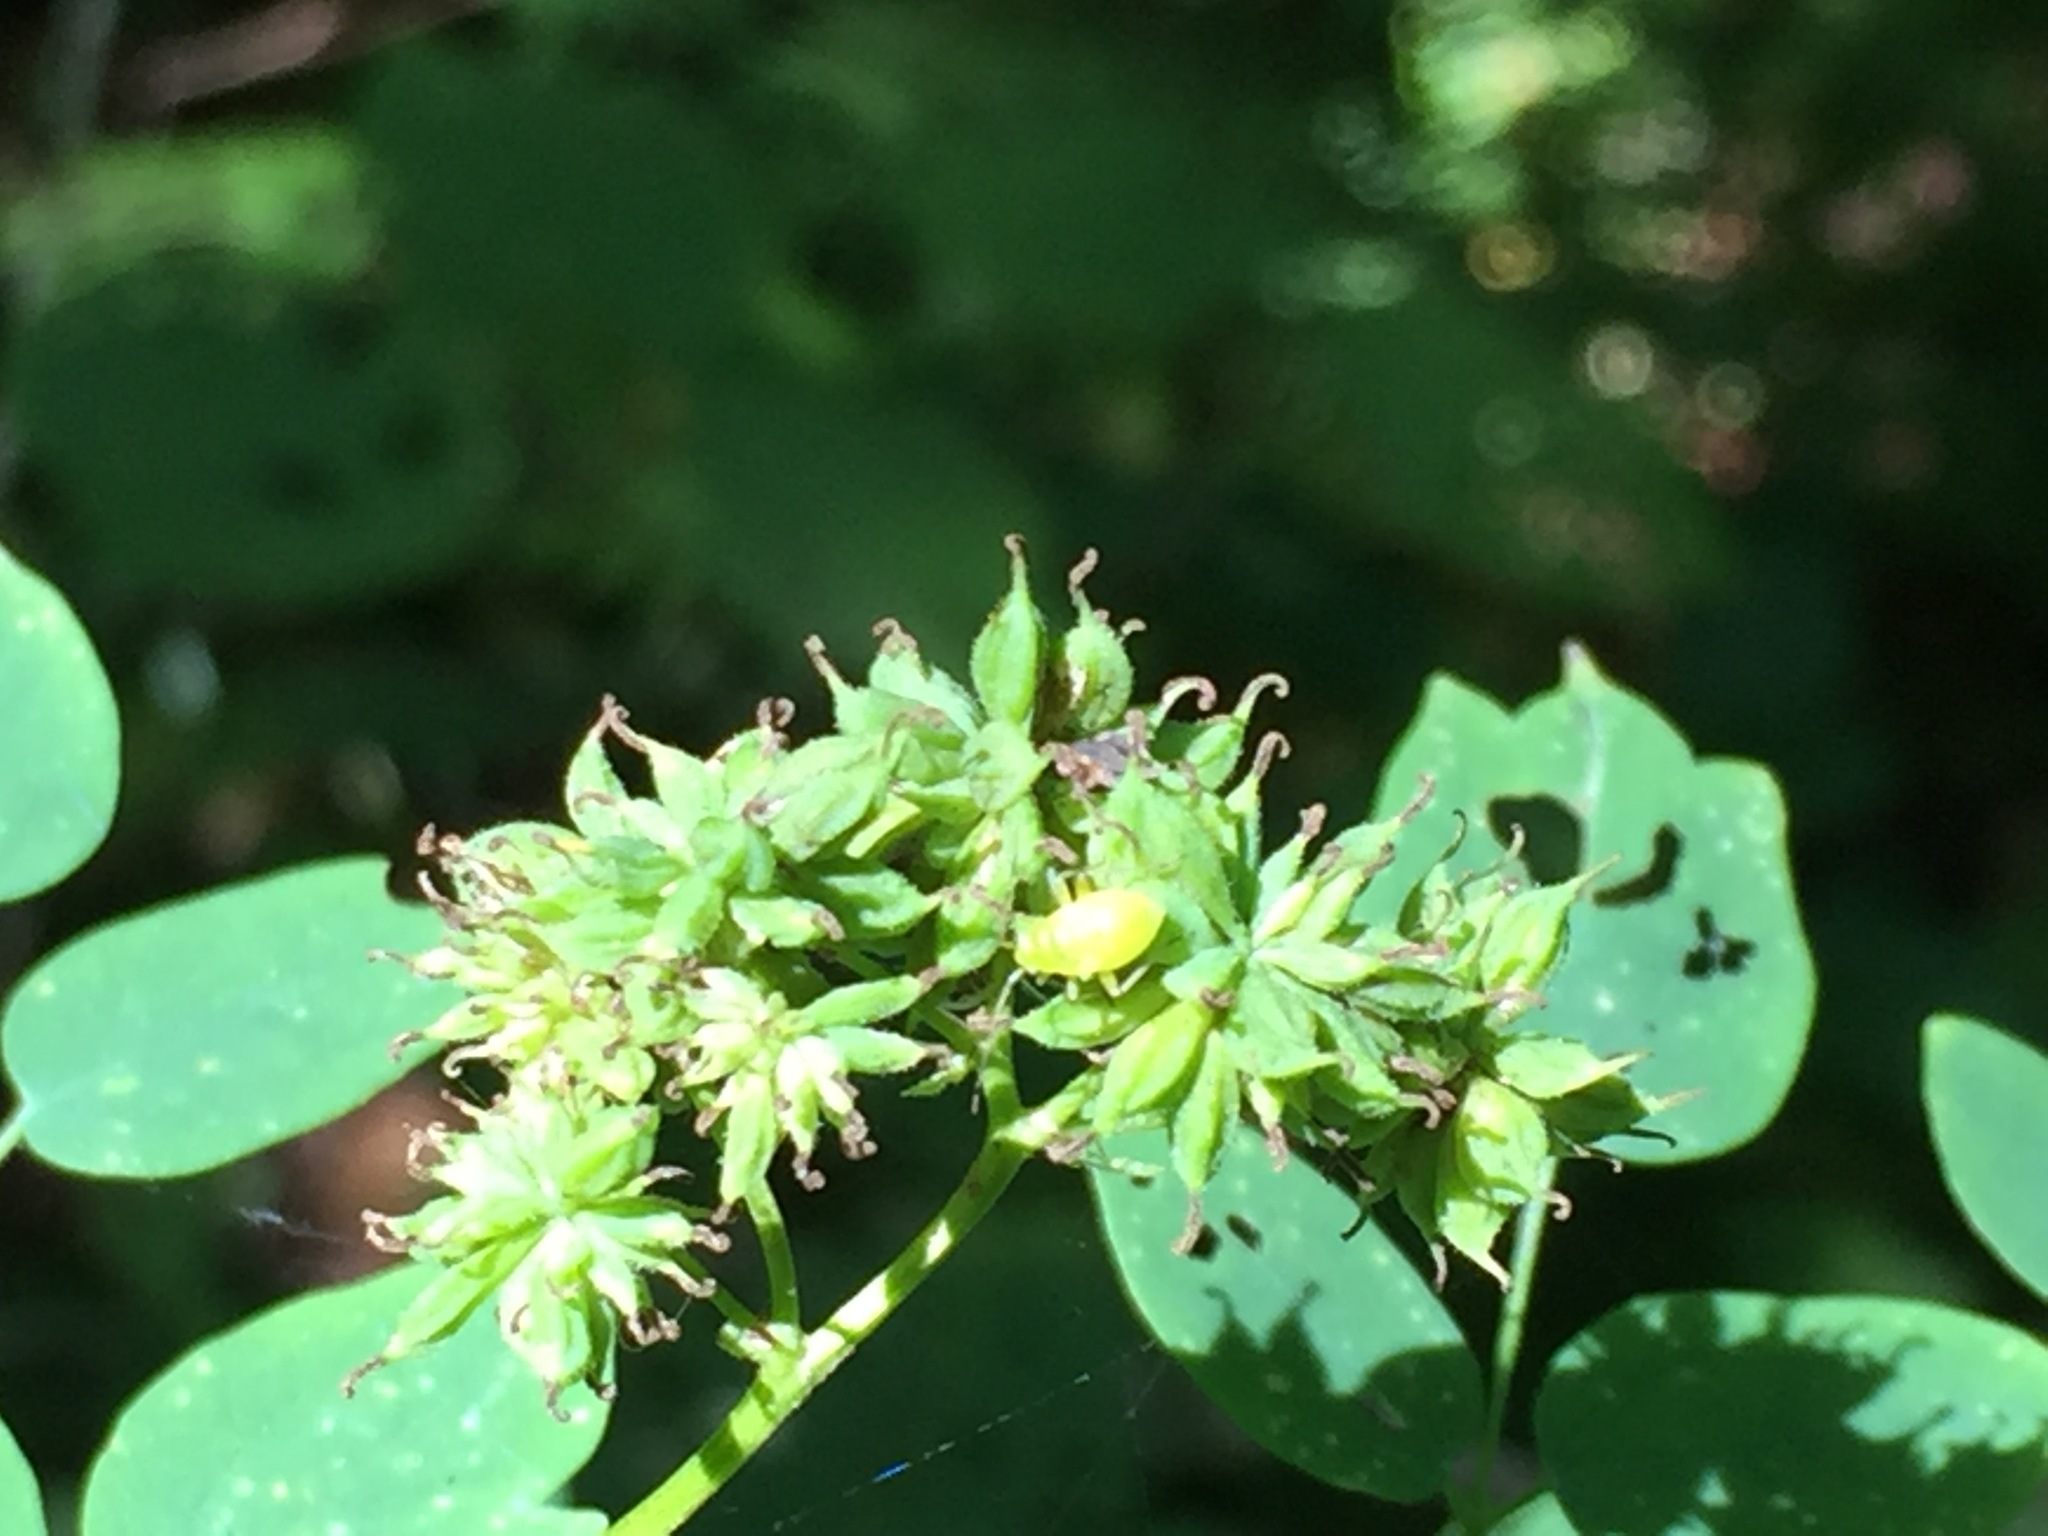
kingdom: Plantae
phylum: Tracheophyta
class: Magnoliopsida
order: Ranunculales
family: Ranunculaceae
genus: Thalictrum
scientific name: Thalictrum pubescens
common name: King-of-the-meadow
